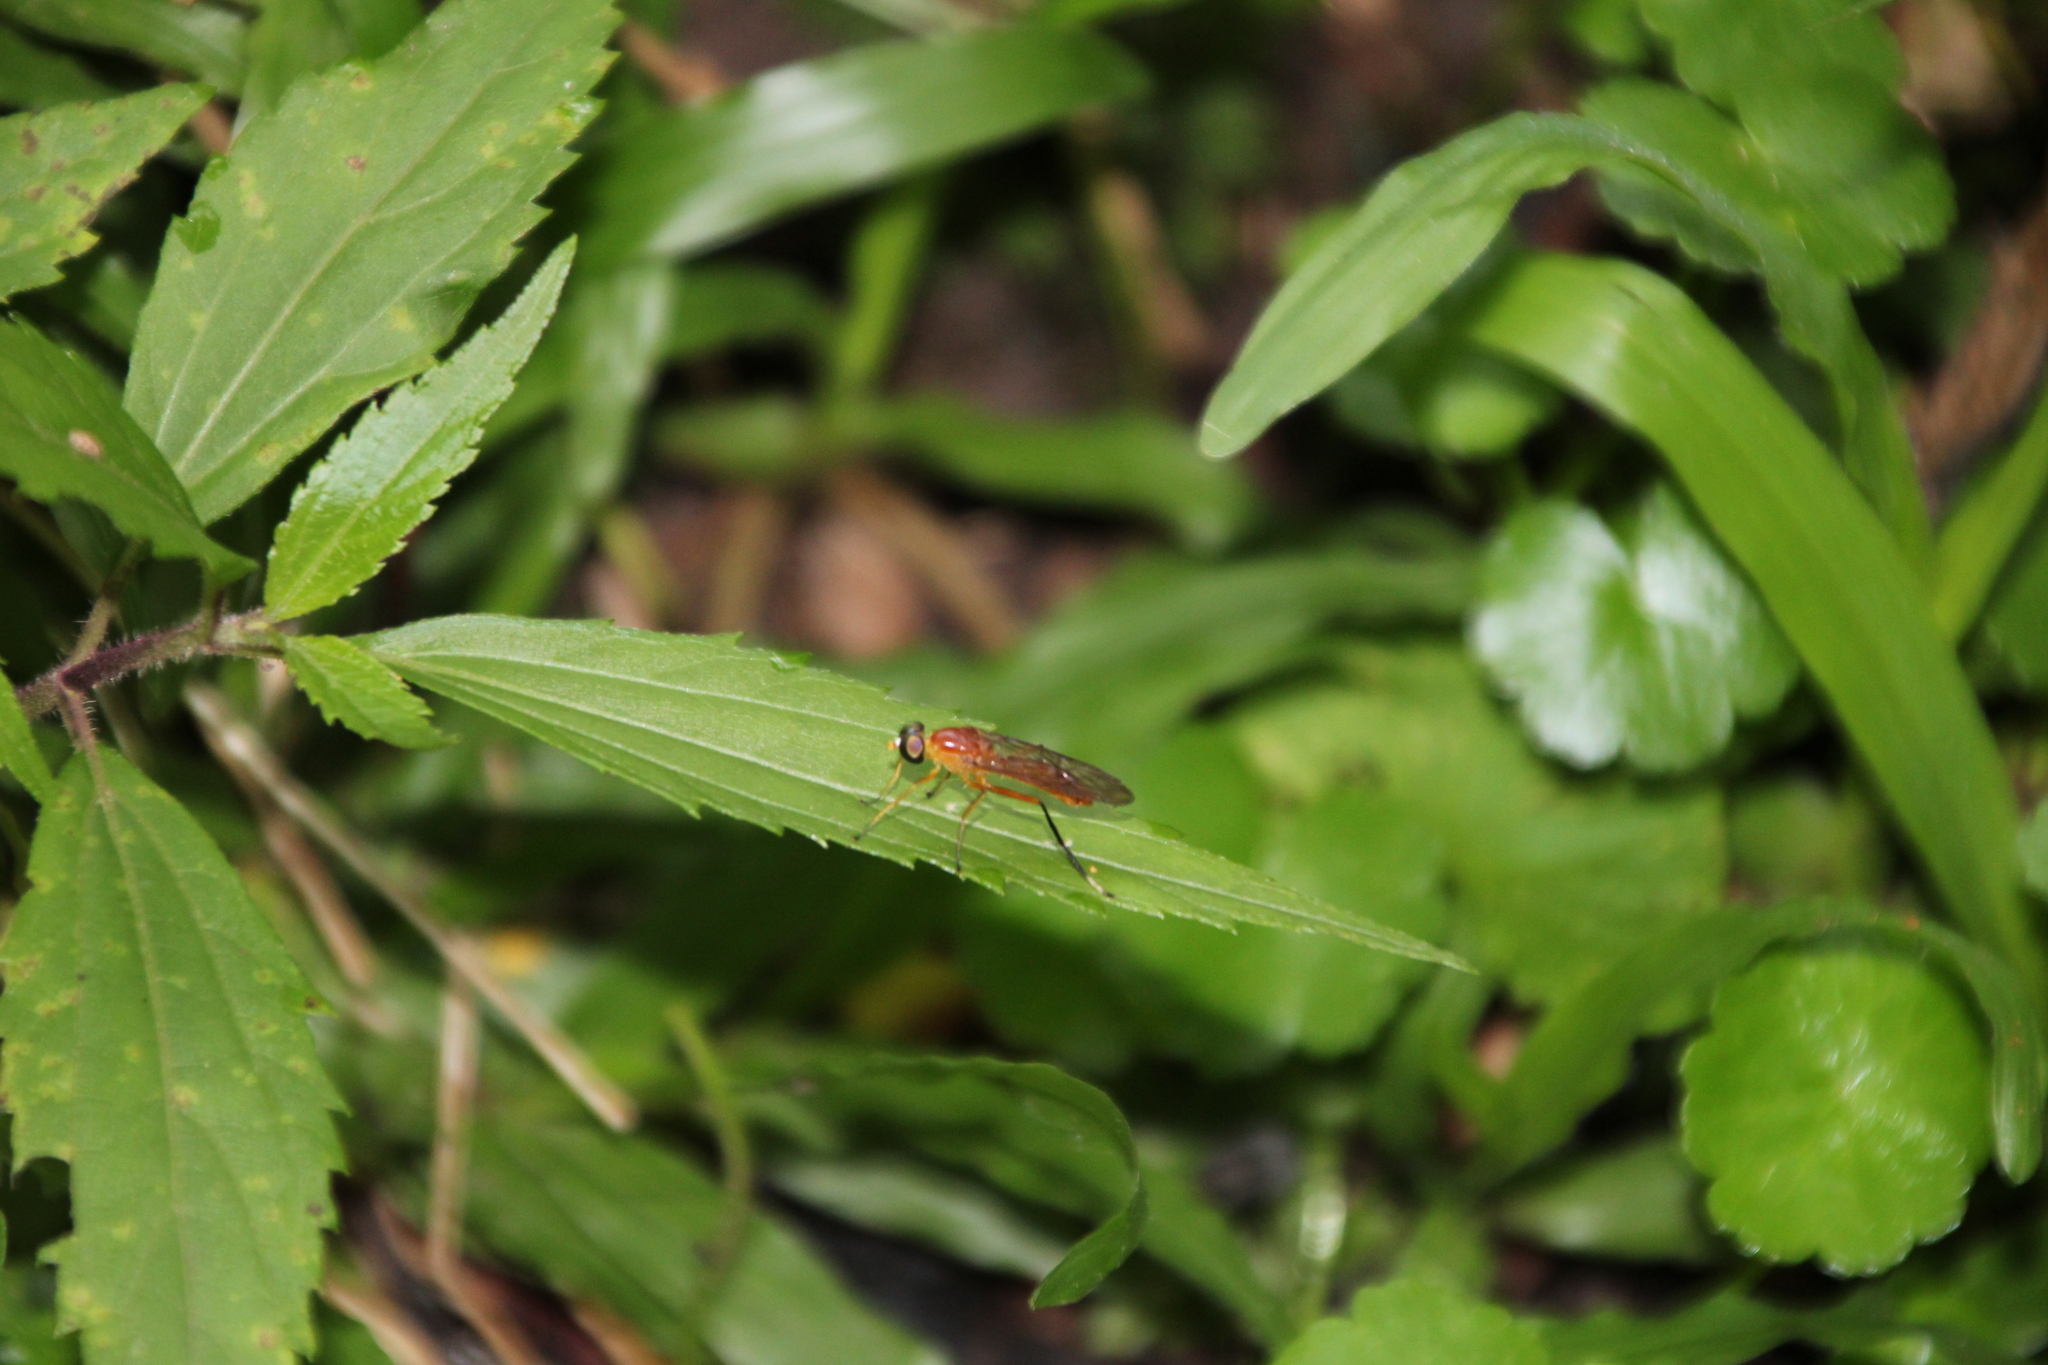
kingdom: Animalia
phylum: Arthropoda
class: Insecta
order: Diptera
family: Stratiomyidae
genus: Ptecticus
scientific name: Ptecticus posticus
